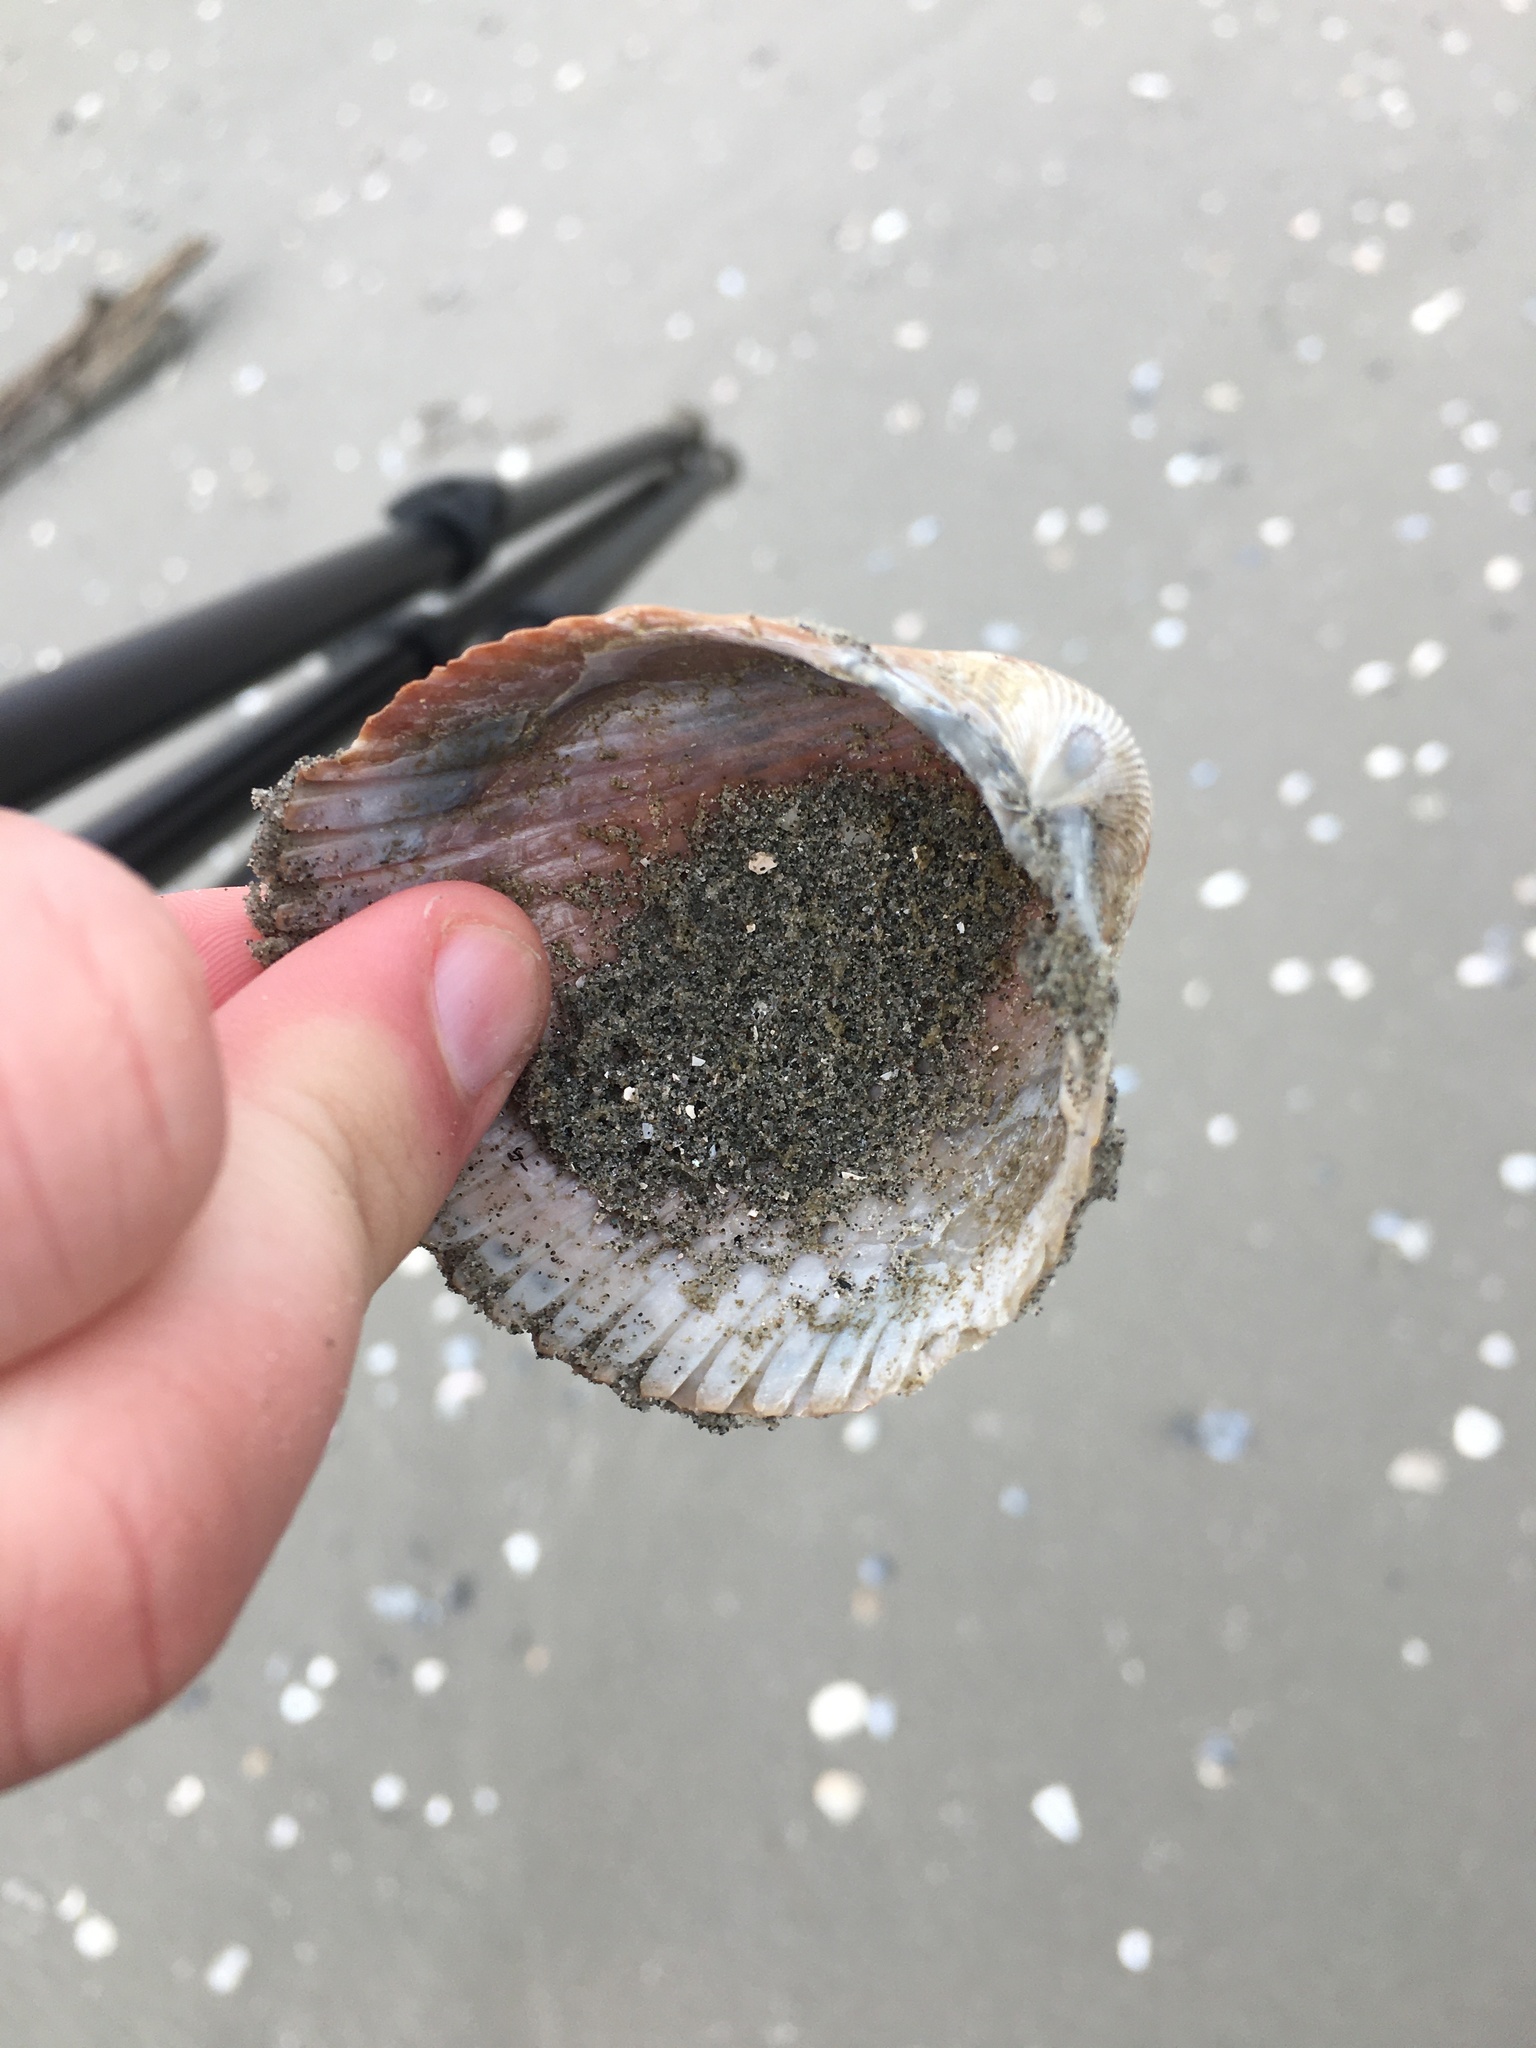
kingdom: Animalia
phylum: Mollusca
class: Bivalvia
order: Cardiida
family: Cardiidae
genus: Dinocardium
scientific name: Dinocardium robustum
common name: Atlantic giant cockle
